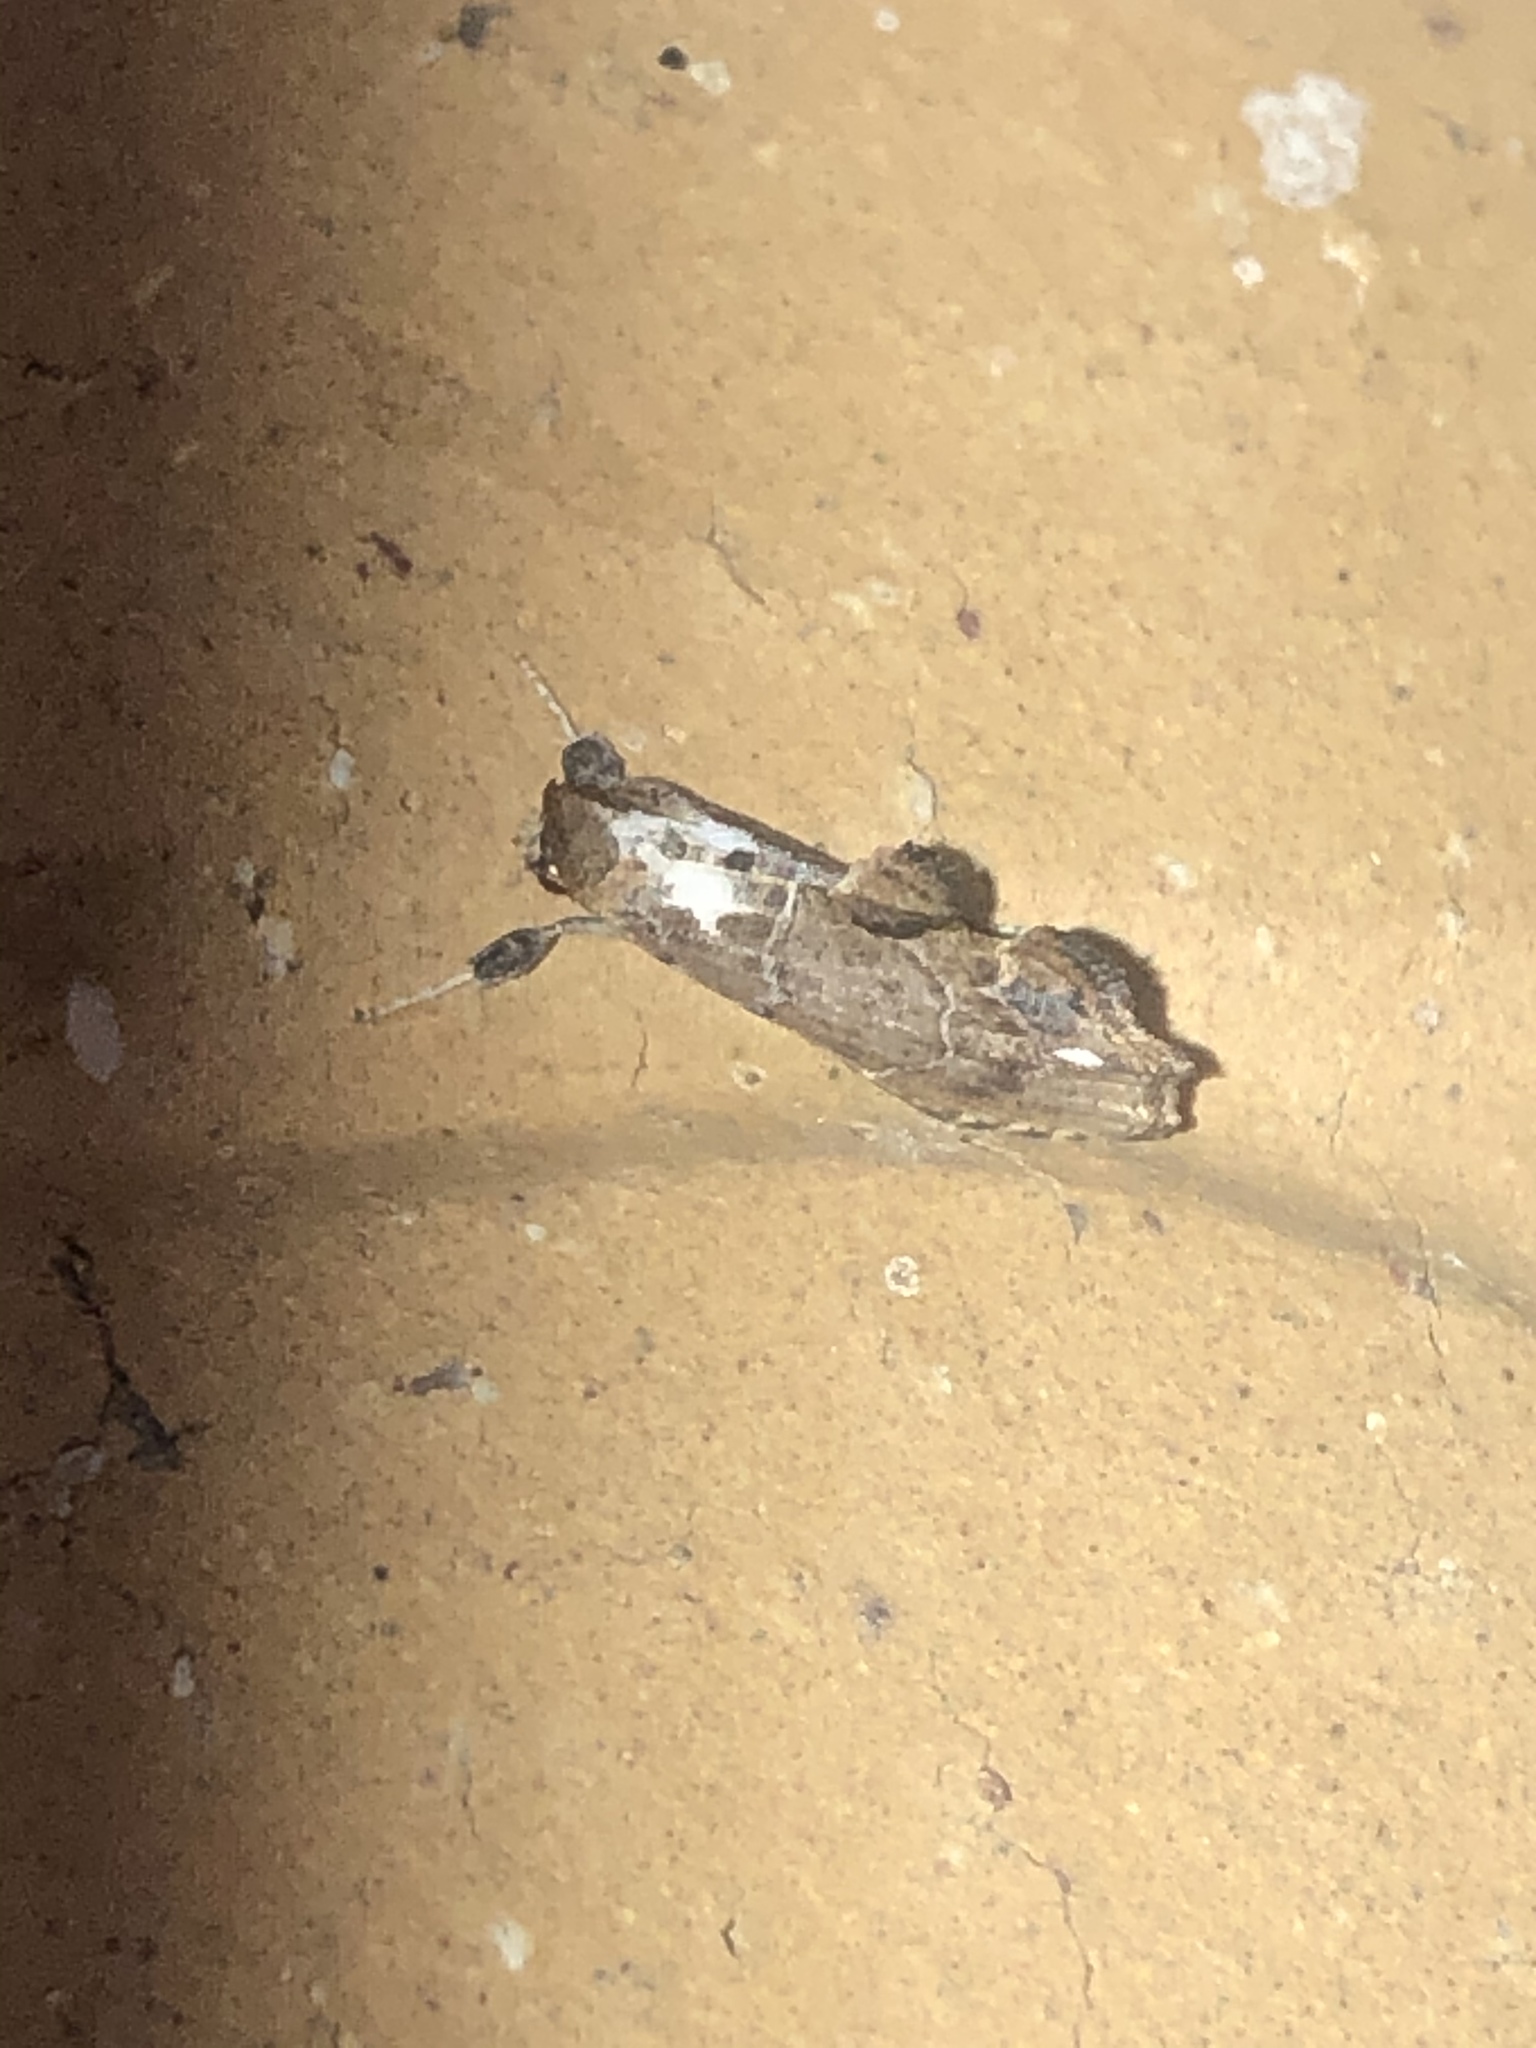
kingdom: Animalia
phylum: Arthropoda
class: Insecta
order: Lepidoptera
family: Erebidae
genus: Arrade
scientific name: Arrade leucocosmalis
